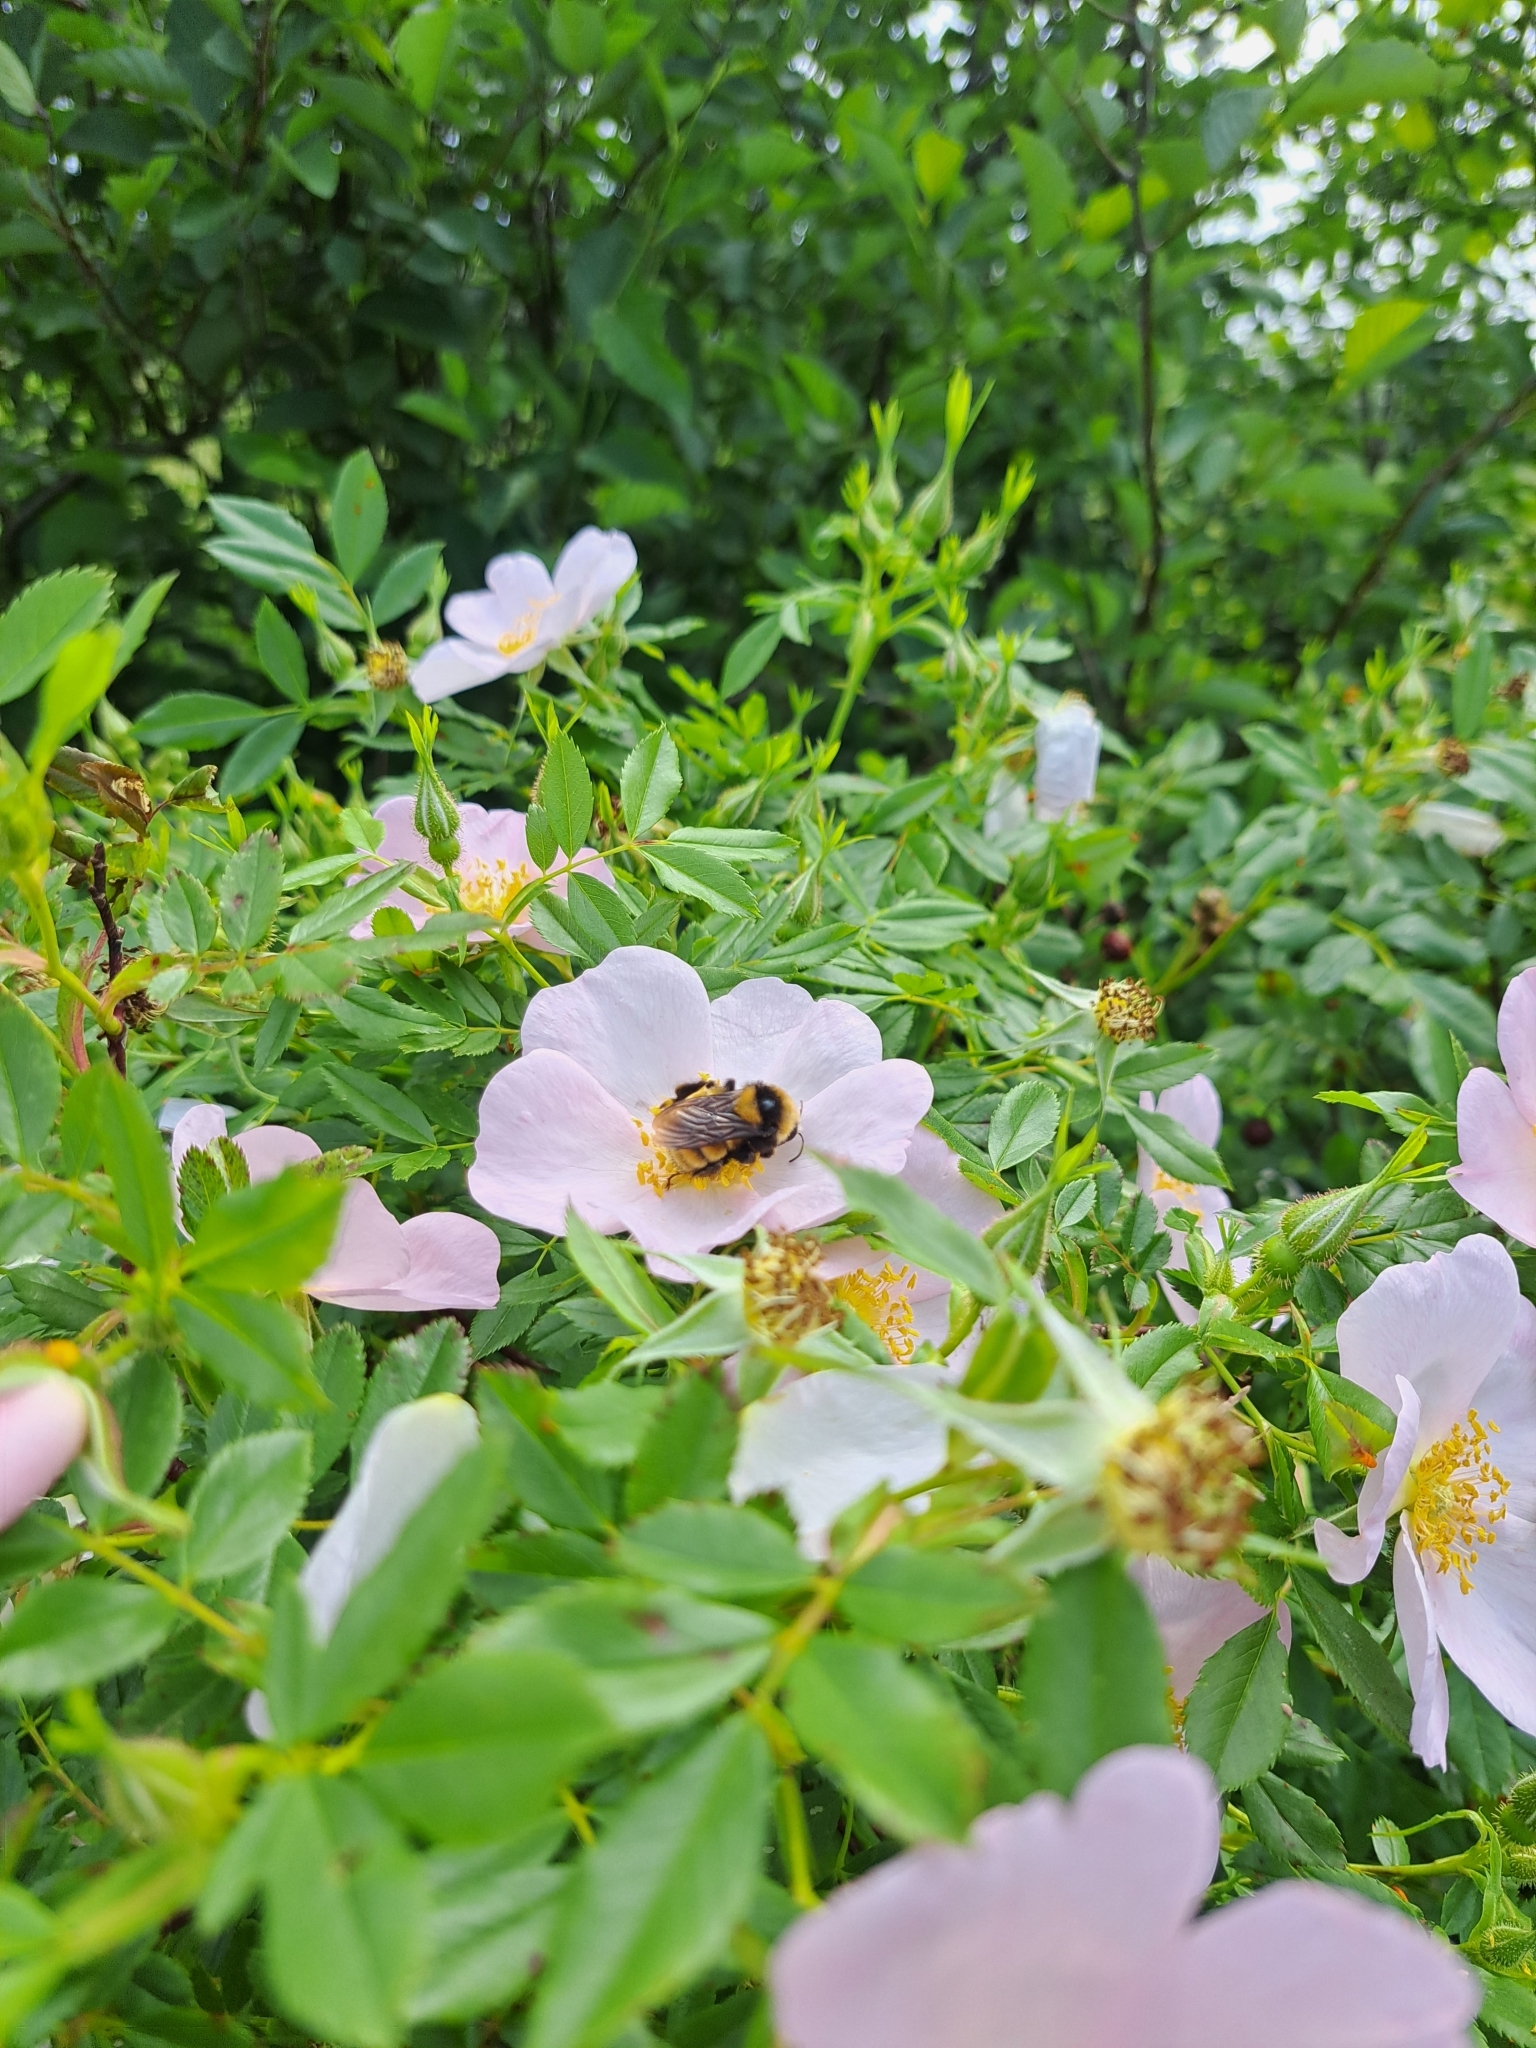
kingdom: Animalia
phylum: Arthropoda
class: Insecta
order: Hymenoptera
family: Apidae
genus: Bombus
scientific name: Bombus borealis
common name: Northern amber bumble bee
